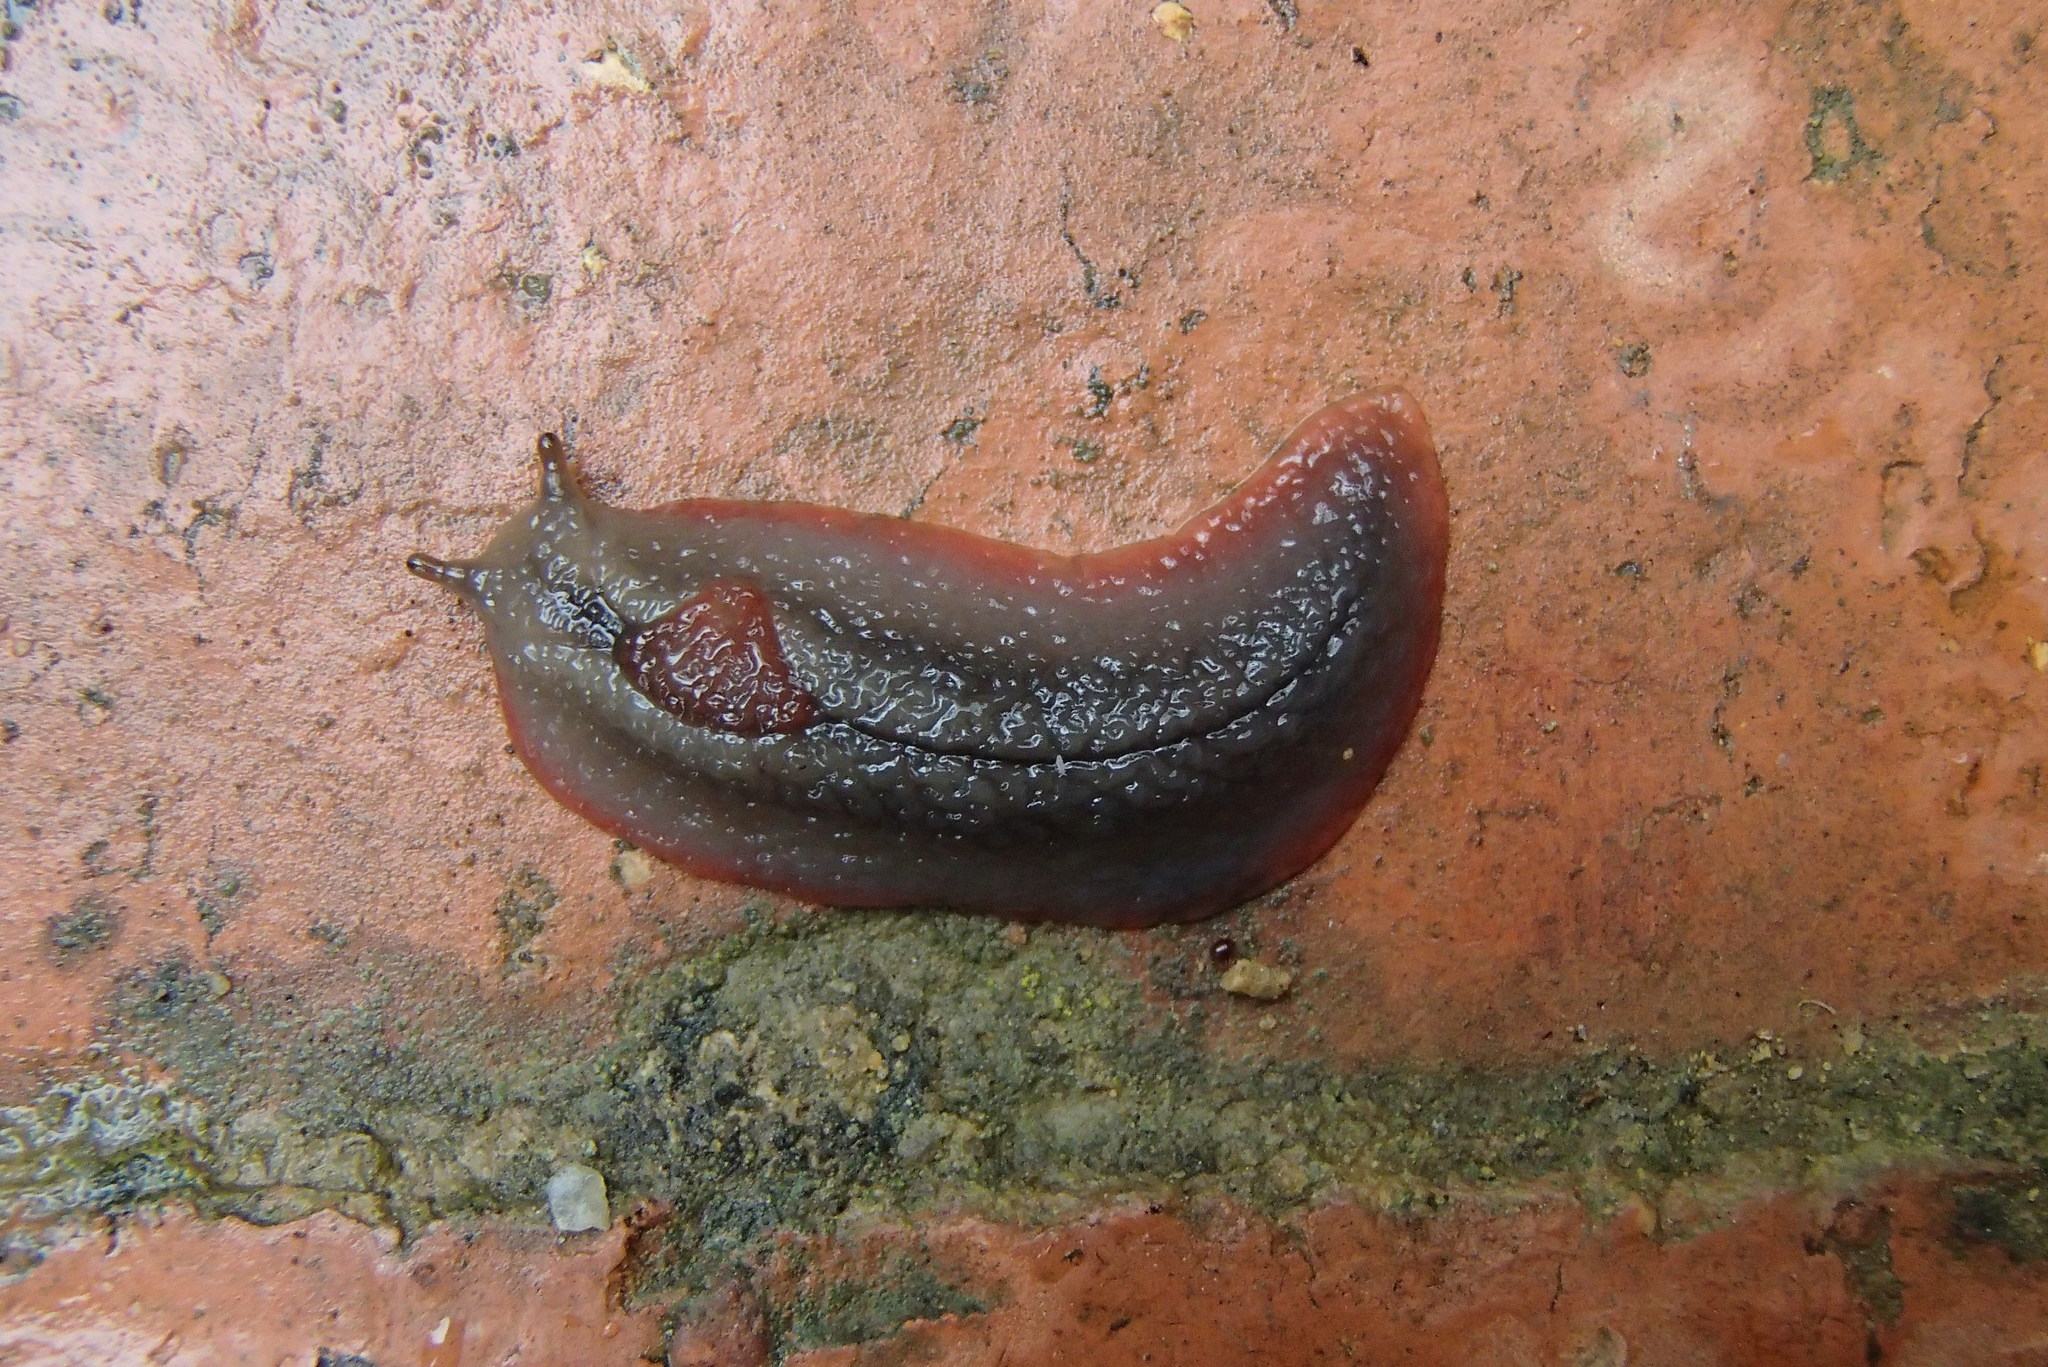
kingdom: Animalia
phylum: Mollusca
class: Gastropoda
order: Stylommatophora
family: Athoracophoridae
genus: Triboniophorus
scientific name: Triboniophorus graeffei
